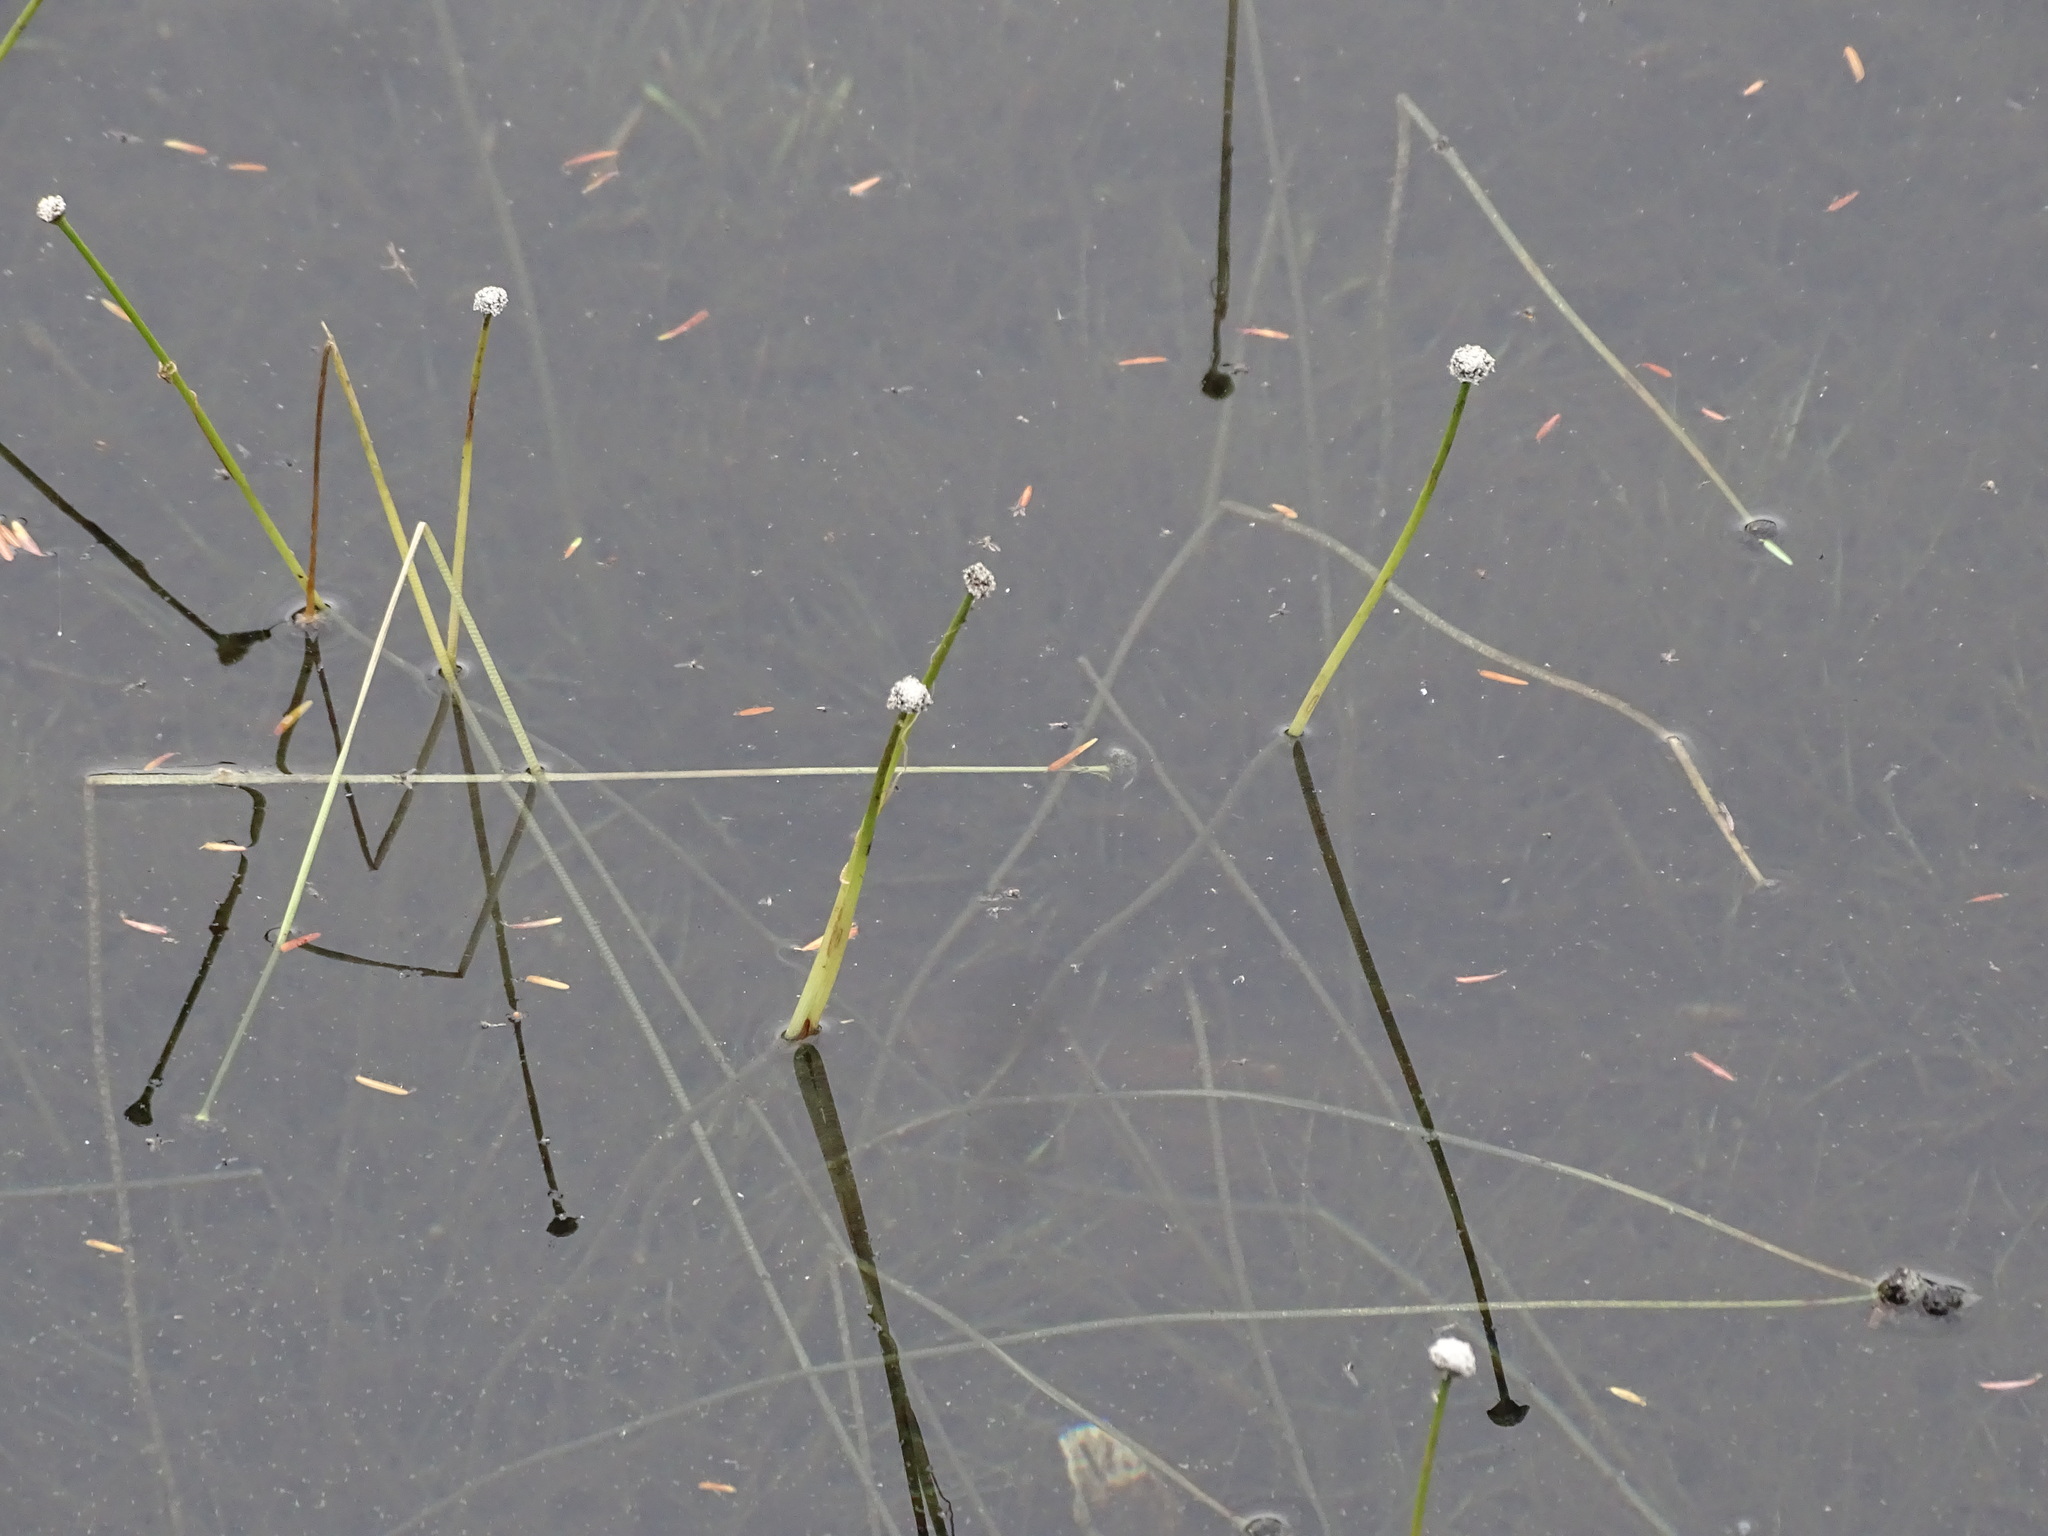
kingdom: Plantae
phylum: Tracheophyta
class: Liliopsida
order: Poales
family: Eriocaulaceae
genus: Eriocaulon
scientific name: Eriocaulon aquaticum
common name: Pipewort
